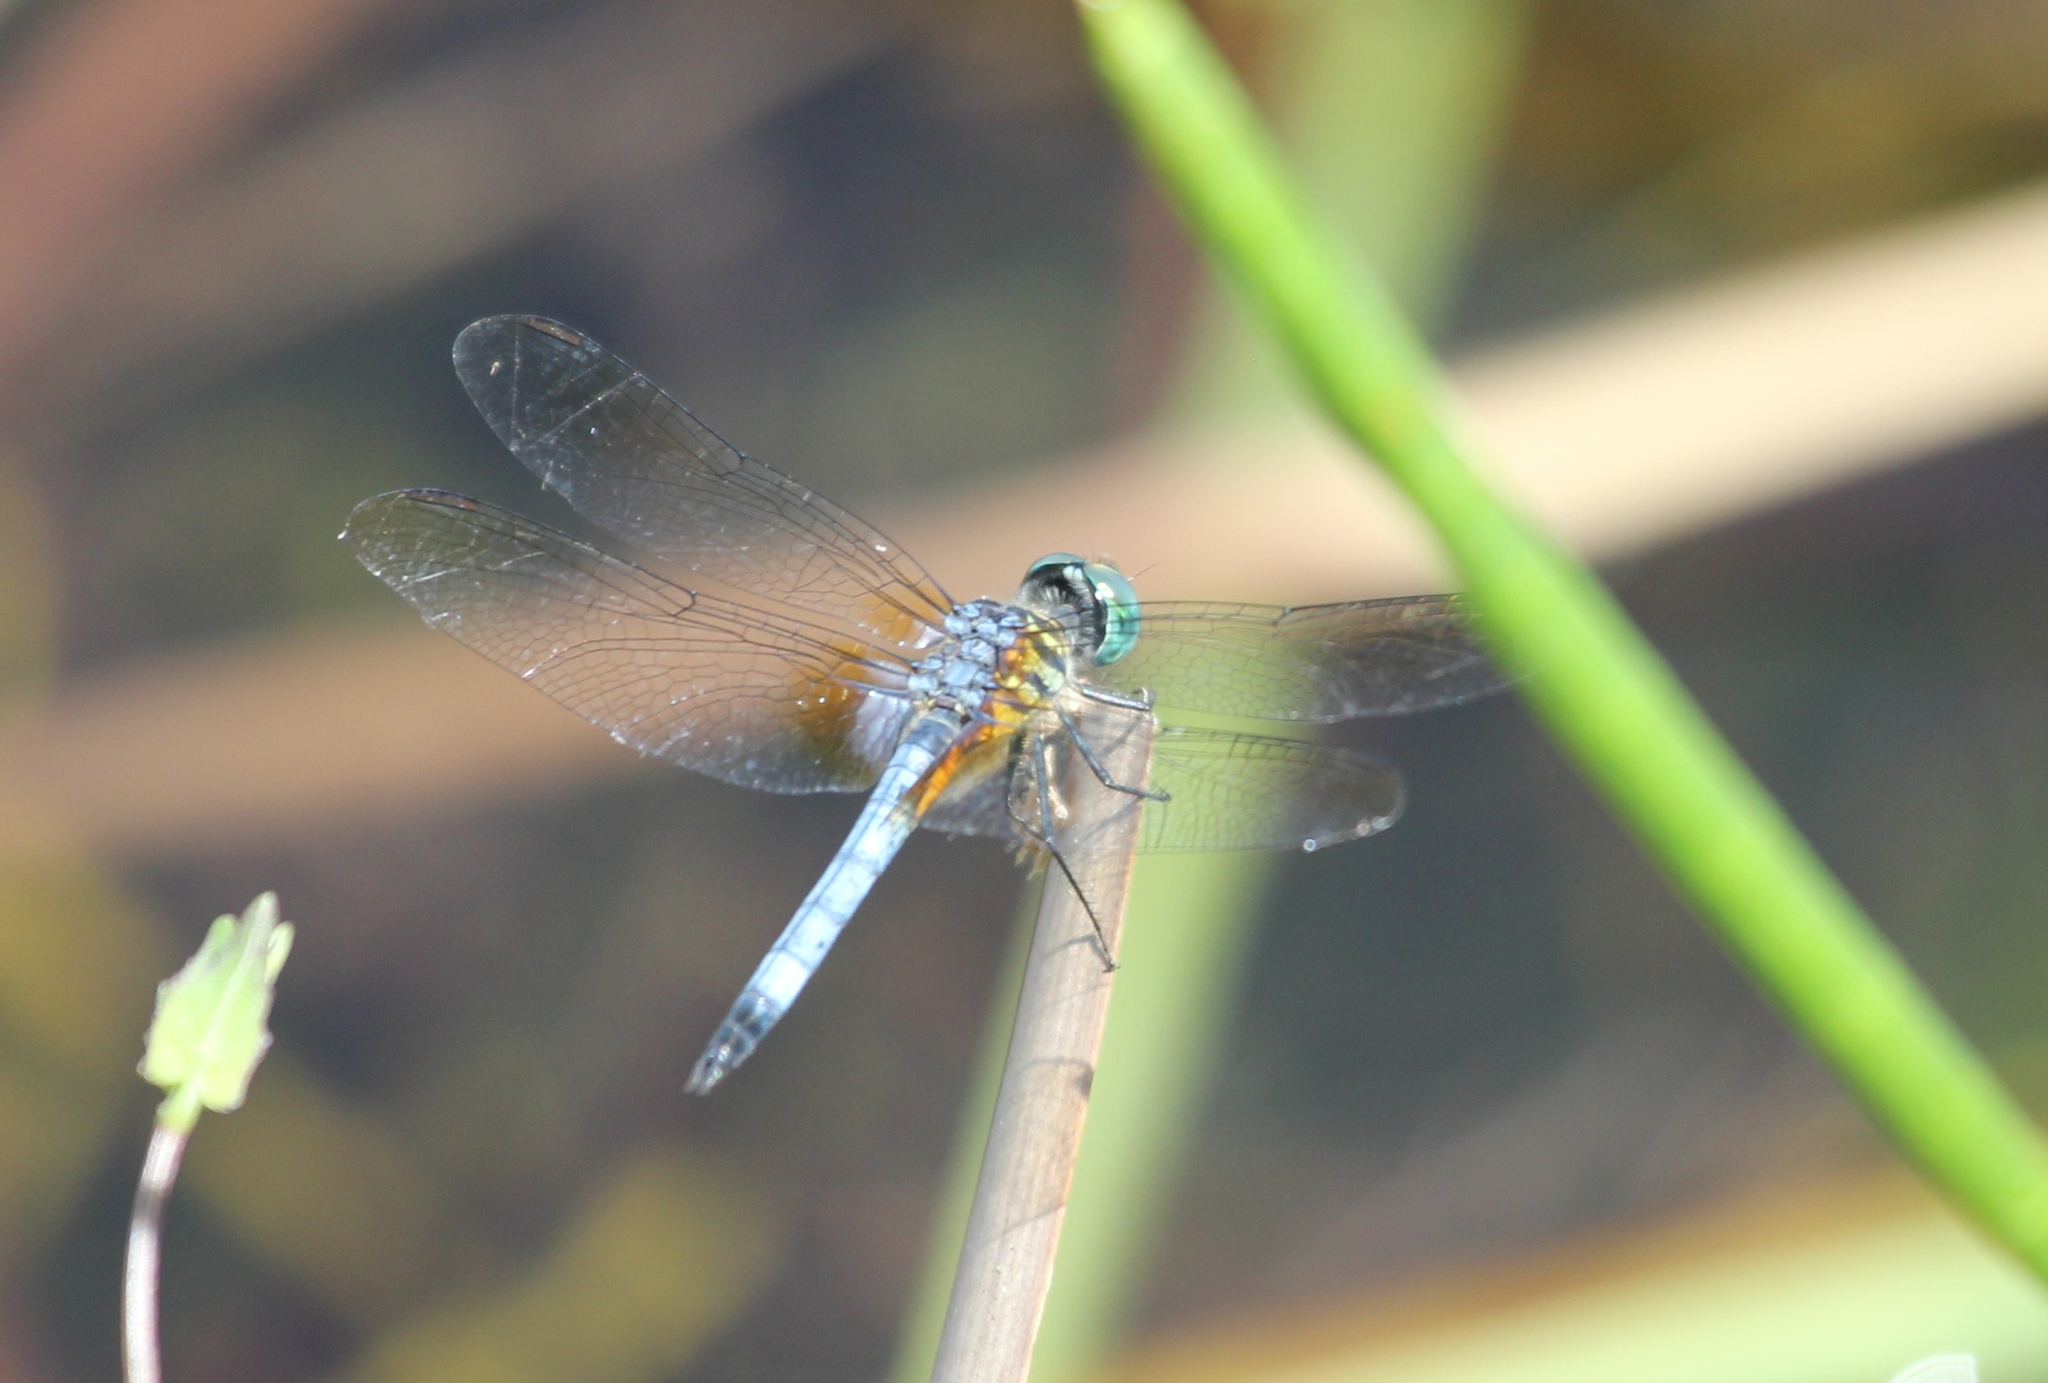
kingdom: Animalia
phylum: Arthropoda
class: Insecta
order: Odonata
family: Libellulidae
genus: Pachydiplax
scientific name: Pachydiplax longipennis
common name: Blue dasher
